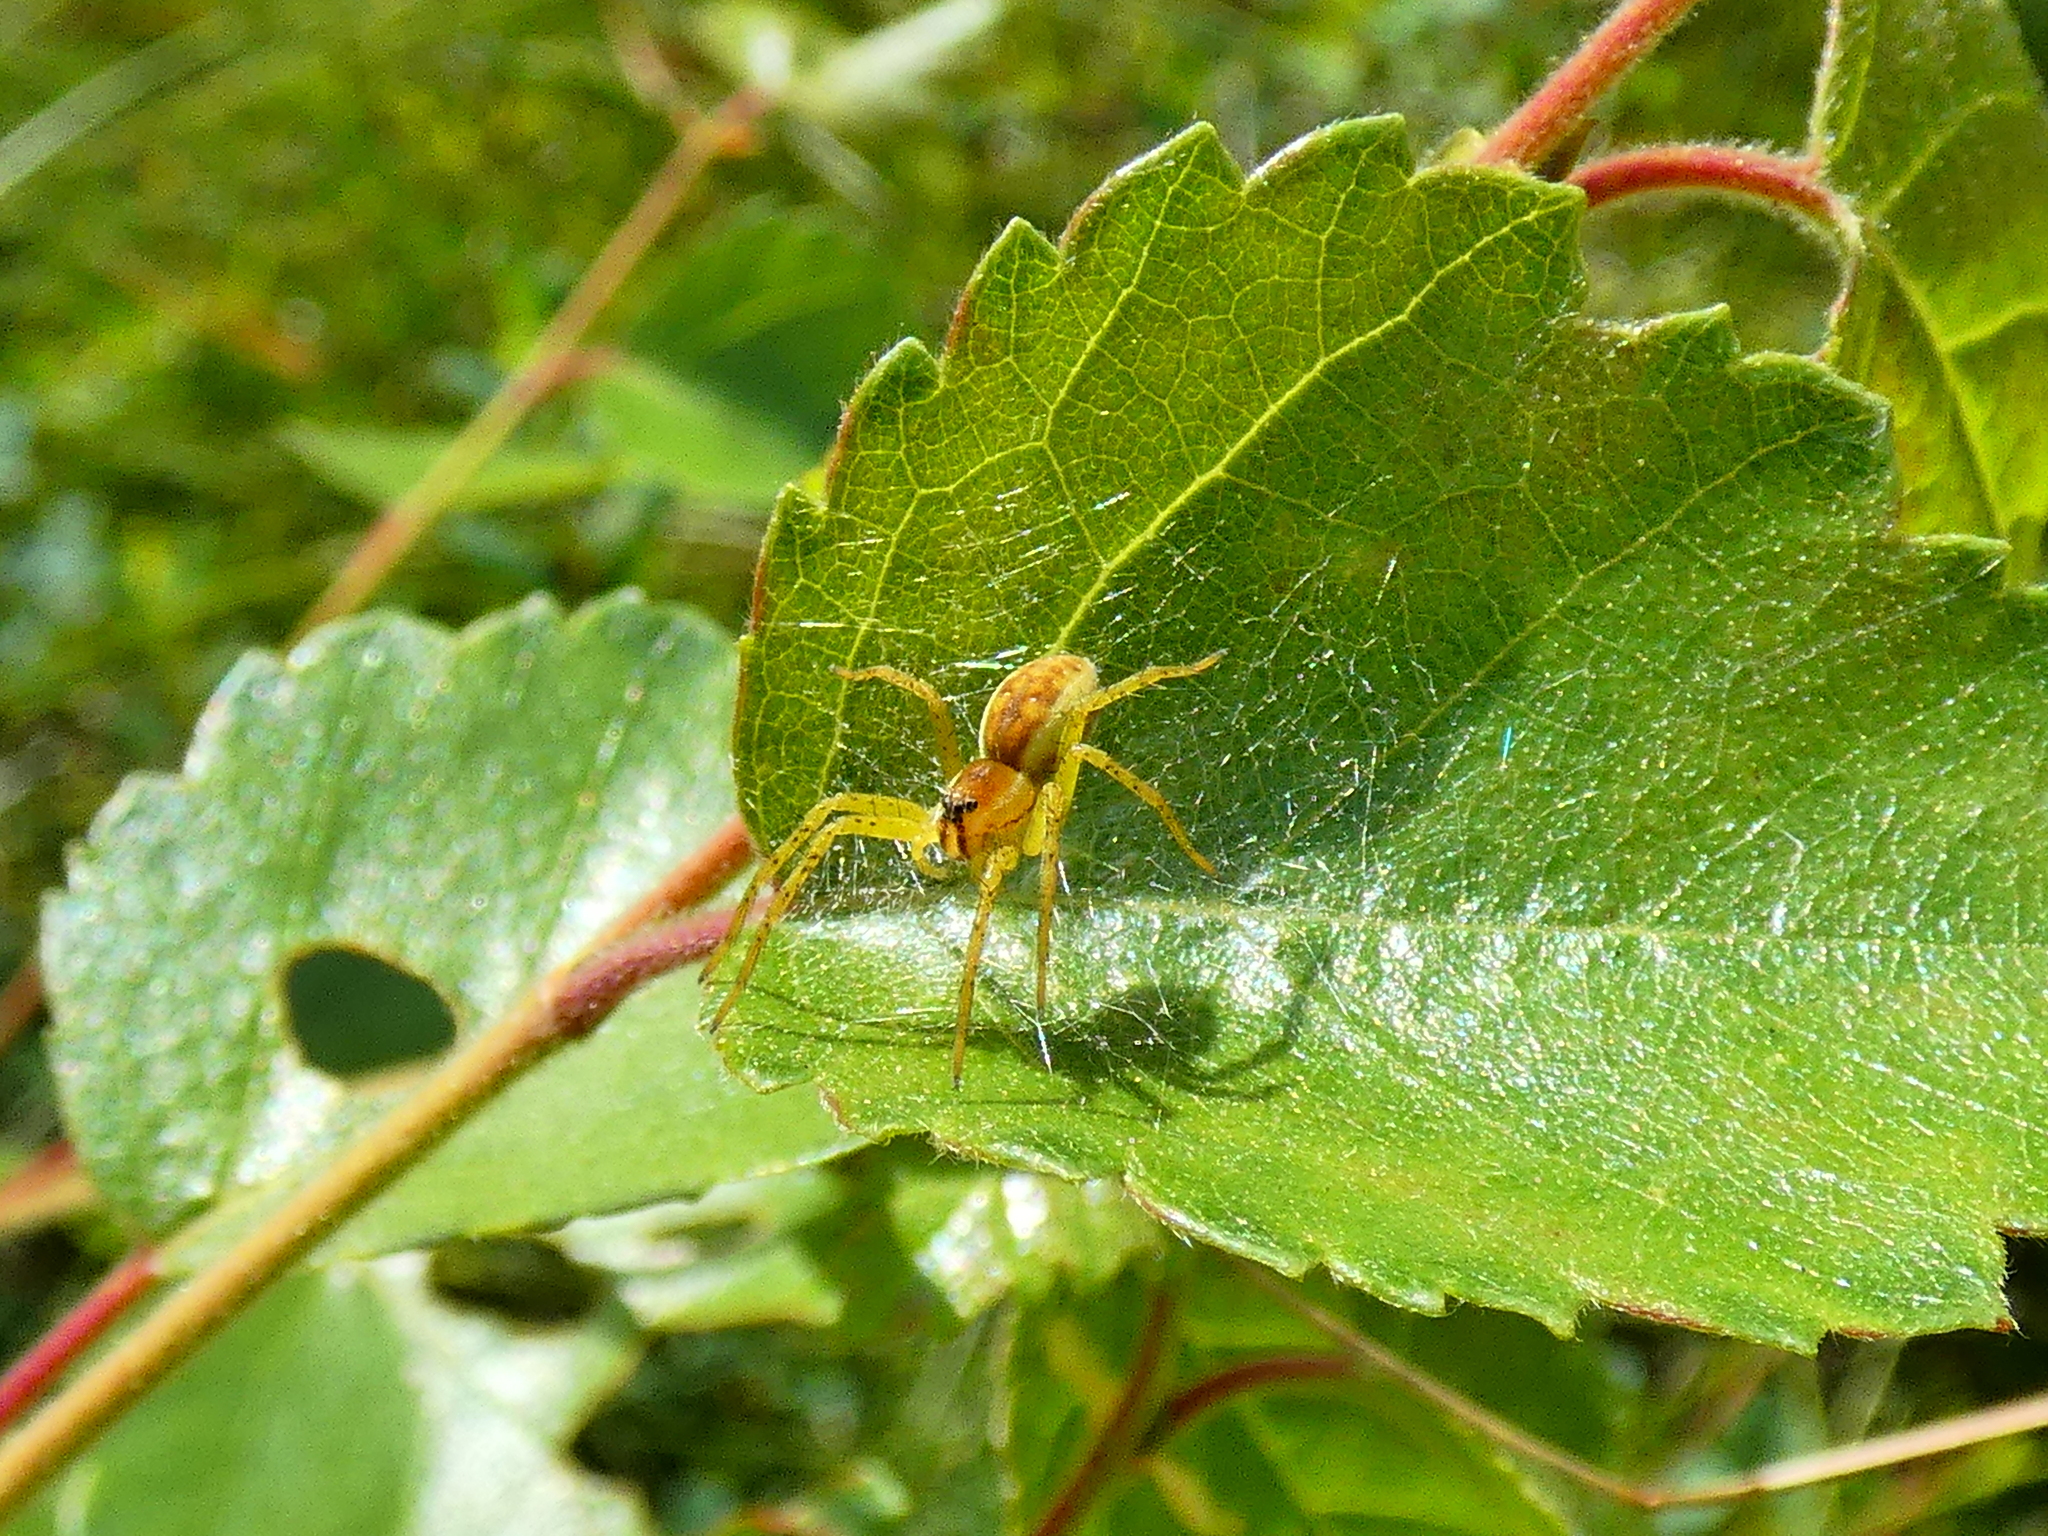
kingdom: Animalia
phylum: Arthropoda
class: Arachnida
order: Araneae
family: Pisauridae
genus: Dolomedes
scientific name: Dolomedes
